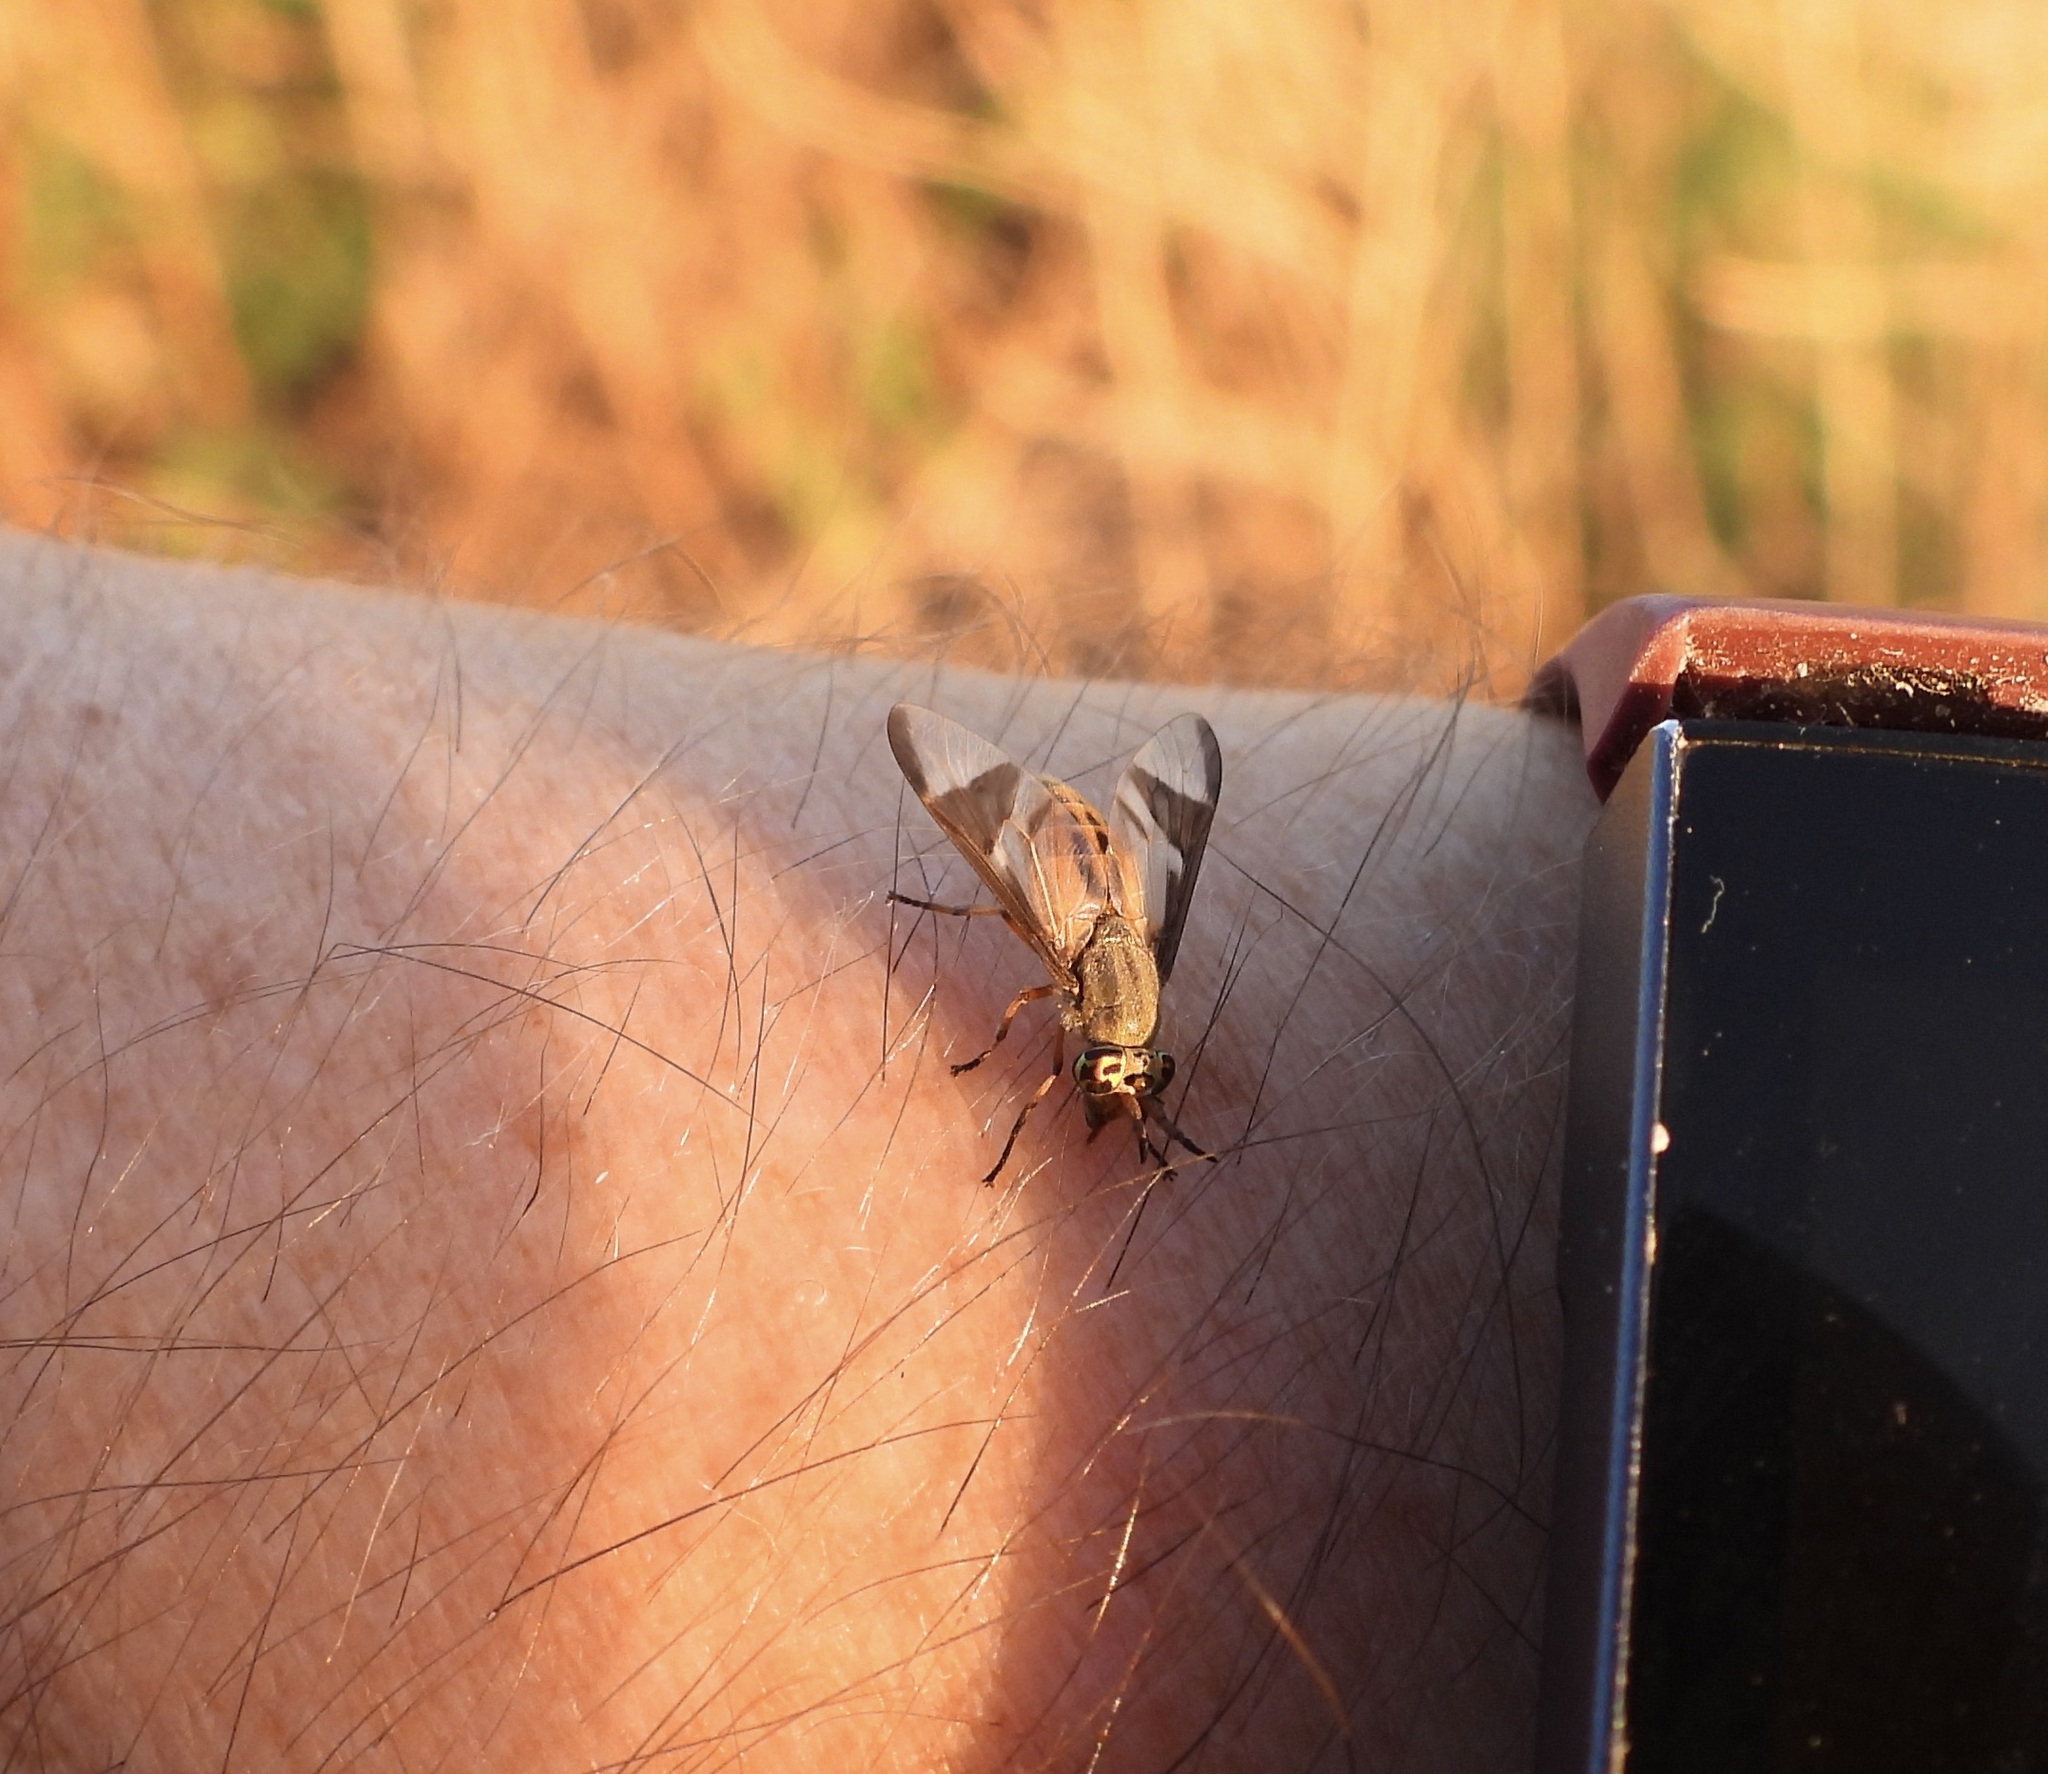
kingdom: Animalia
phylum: Arthropoda
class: Insecta
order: Diptera
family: Tabanidae
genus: Chrysops
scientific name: Chrysops dissimilis
